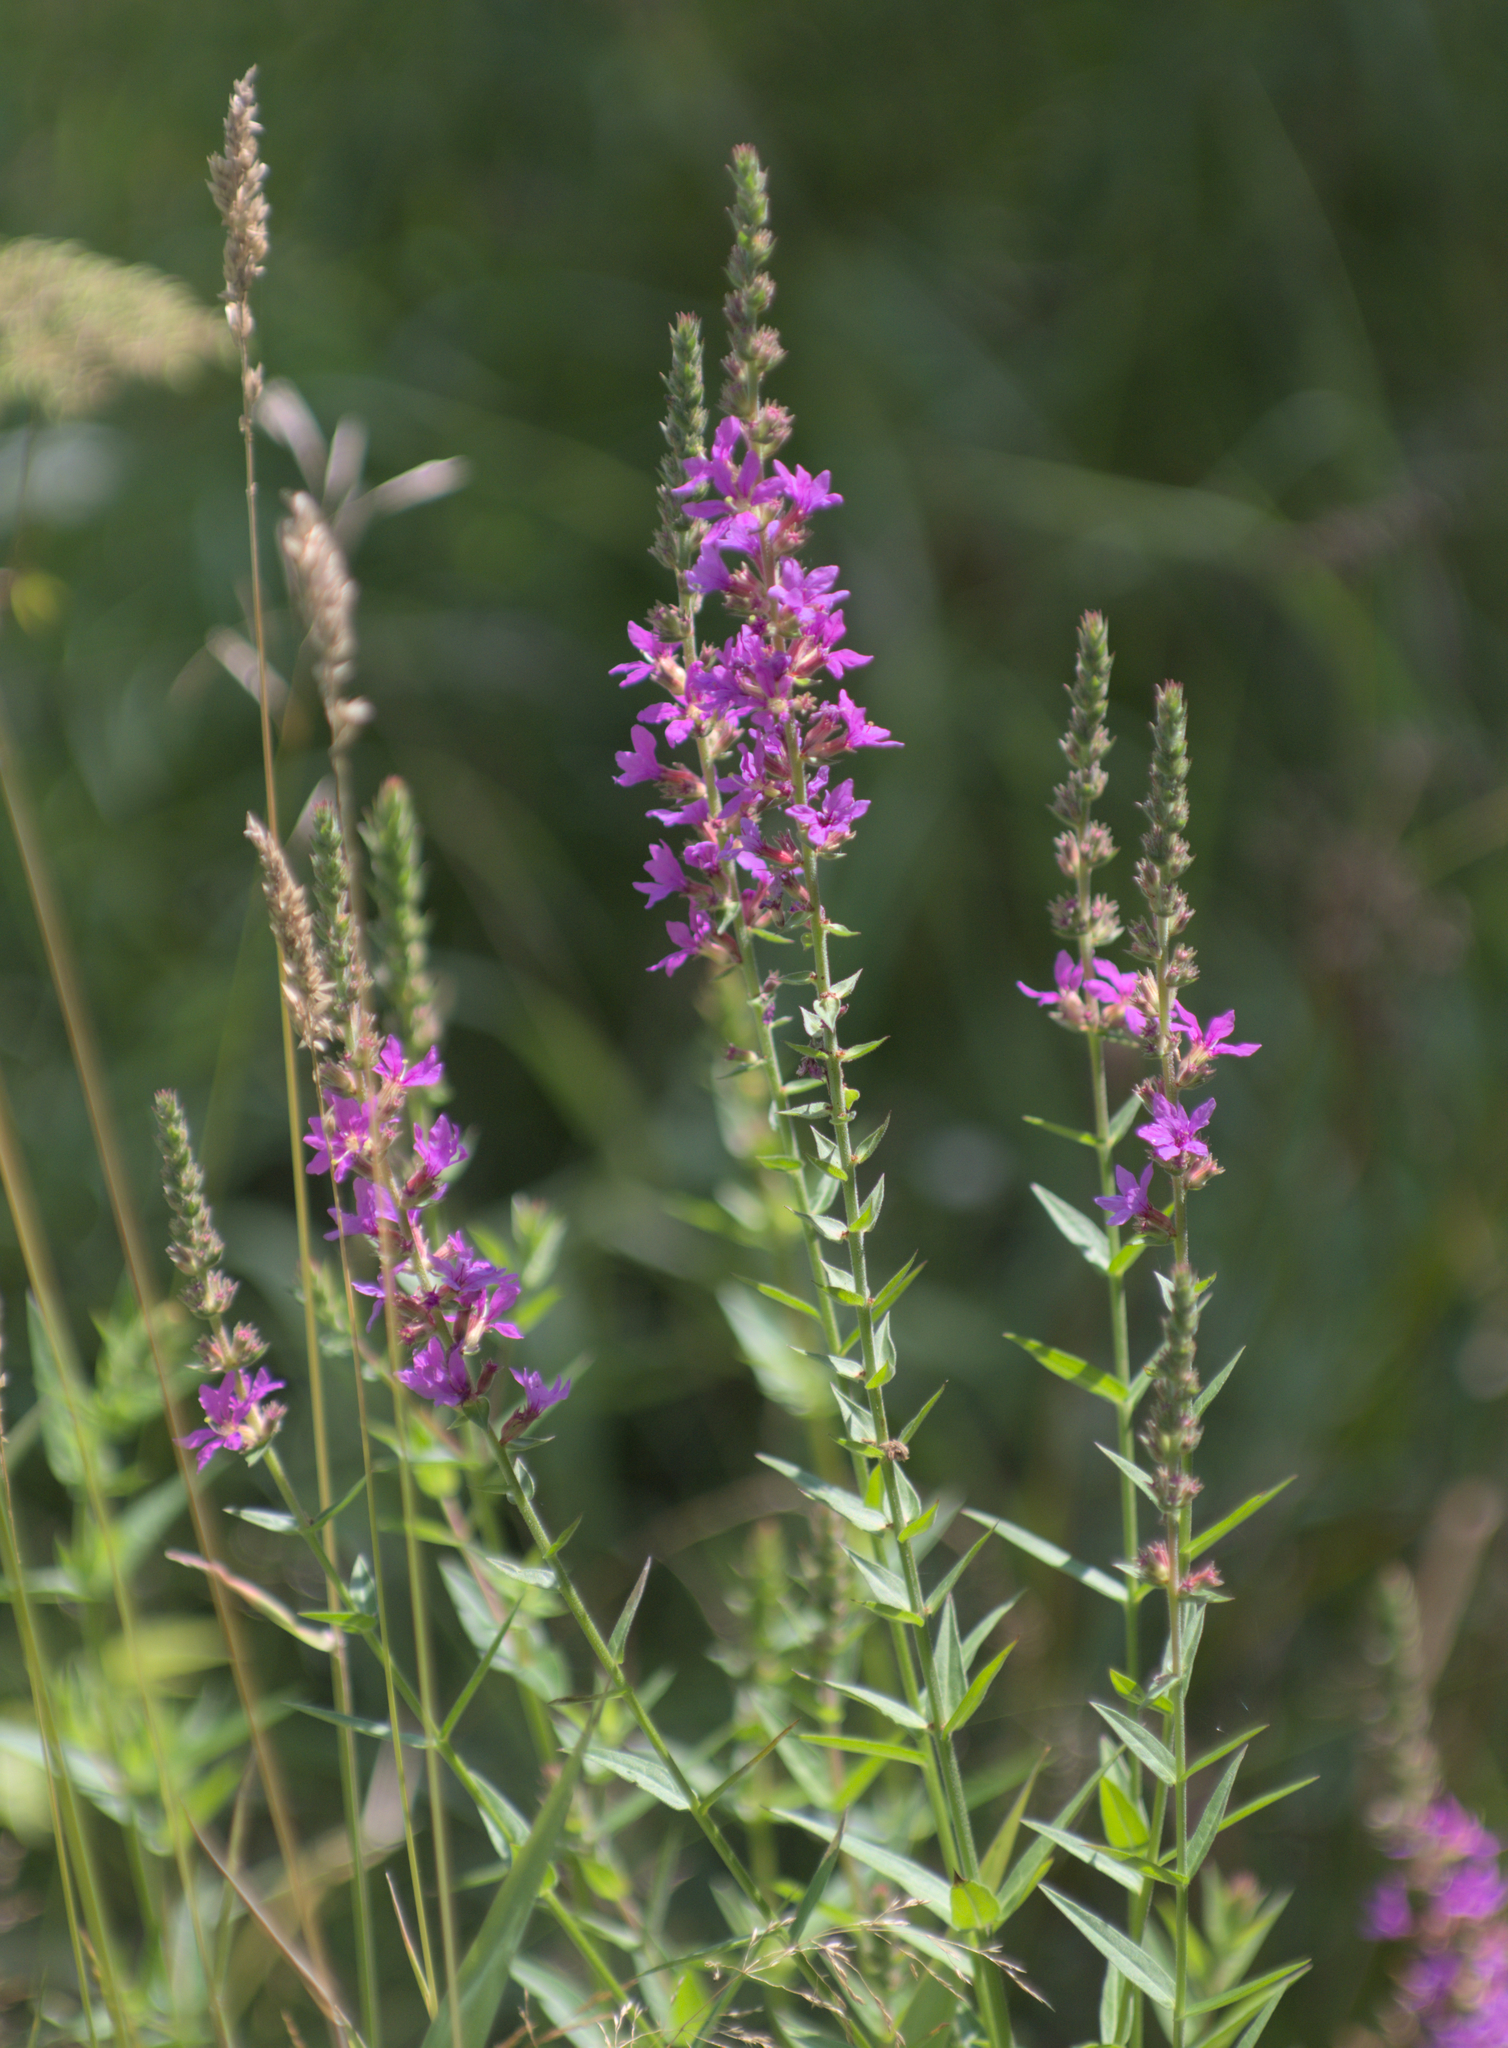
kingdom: Plantae
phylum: Tracheophyta
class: Magnoliopsida
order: Myrtales
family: Lythraceae
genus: Lythrum
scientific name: Lythrum salicaria
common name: Purple loosestrife
